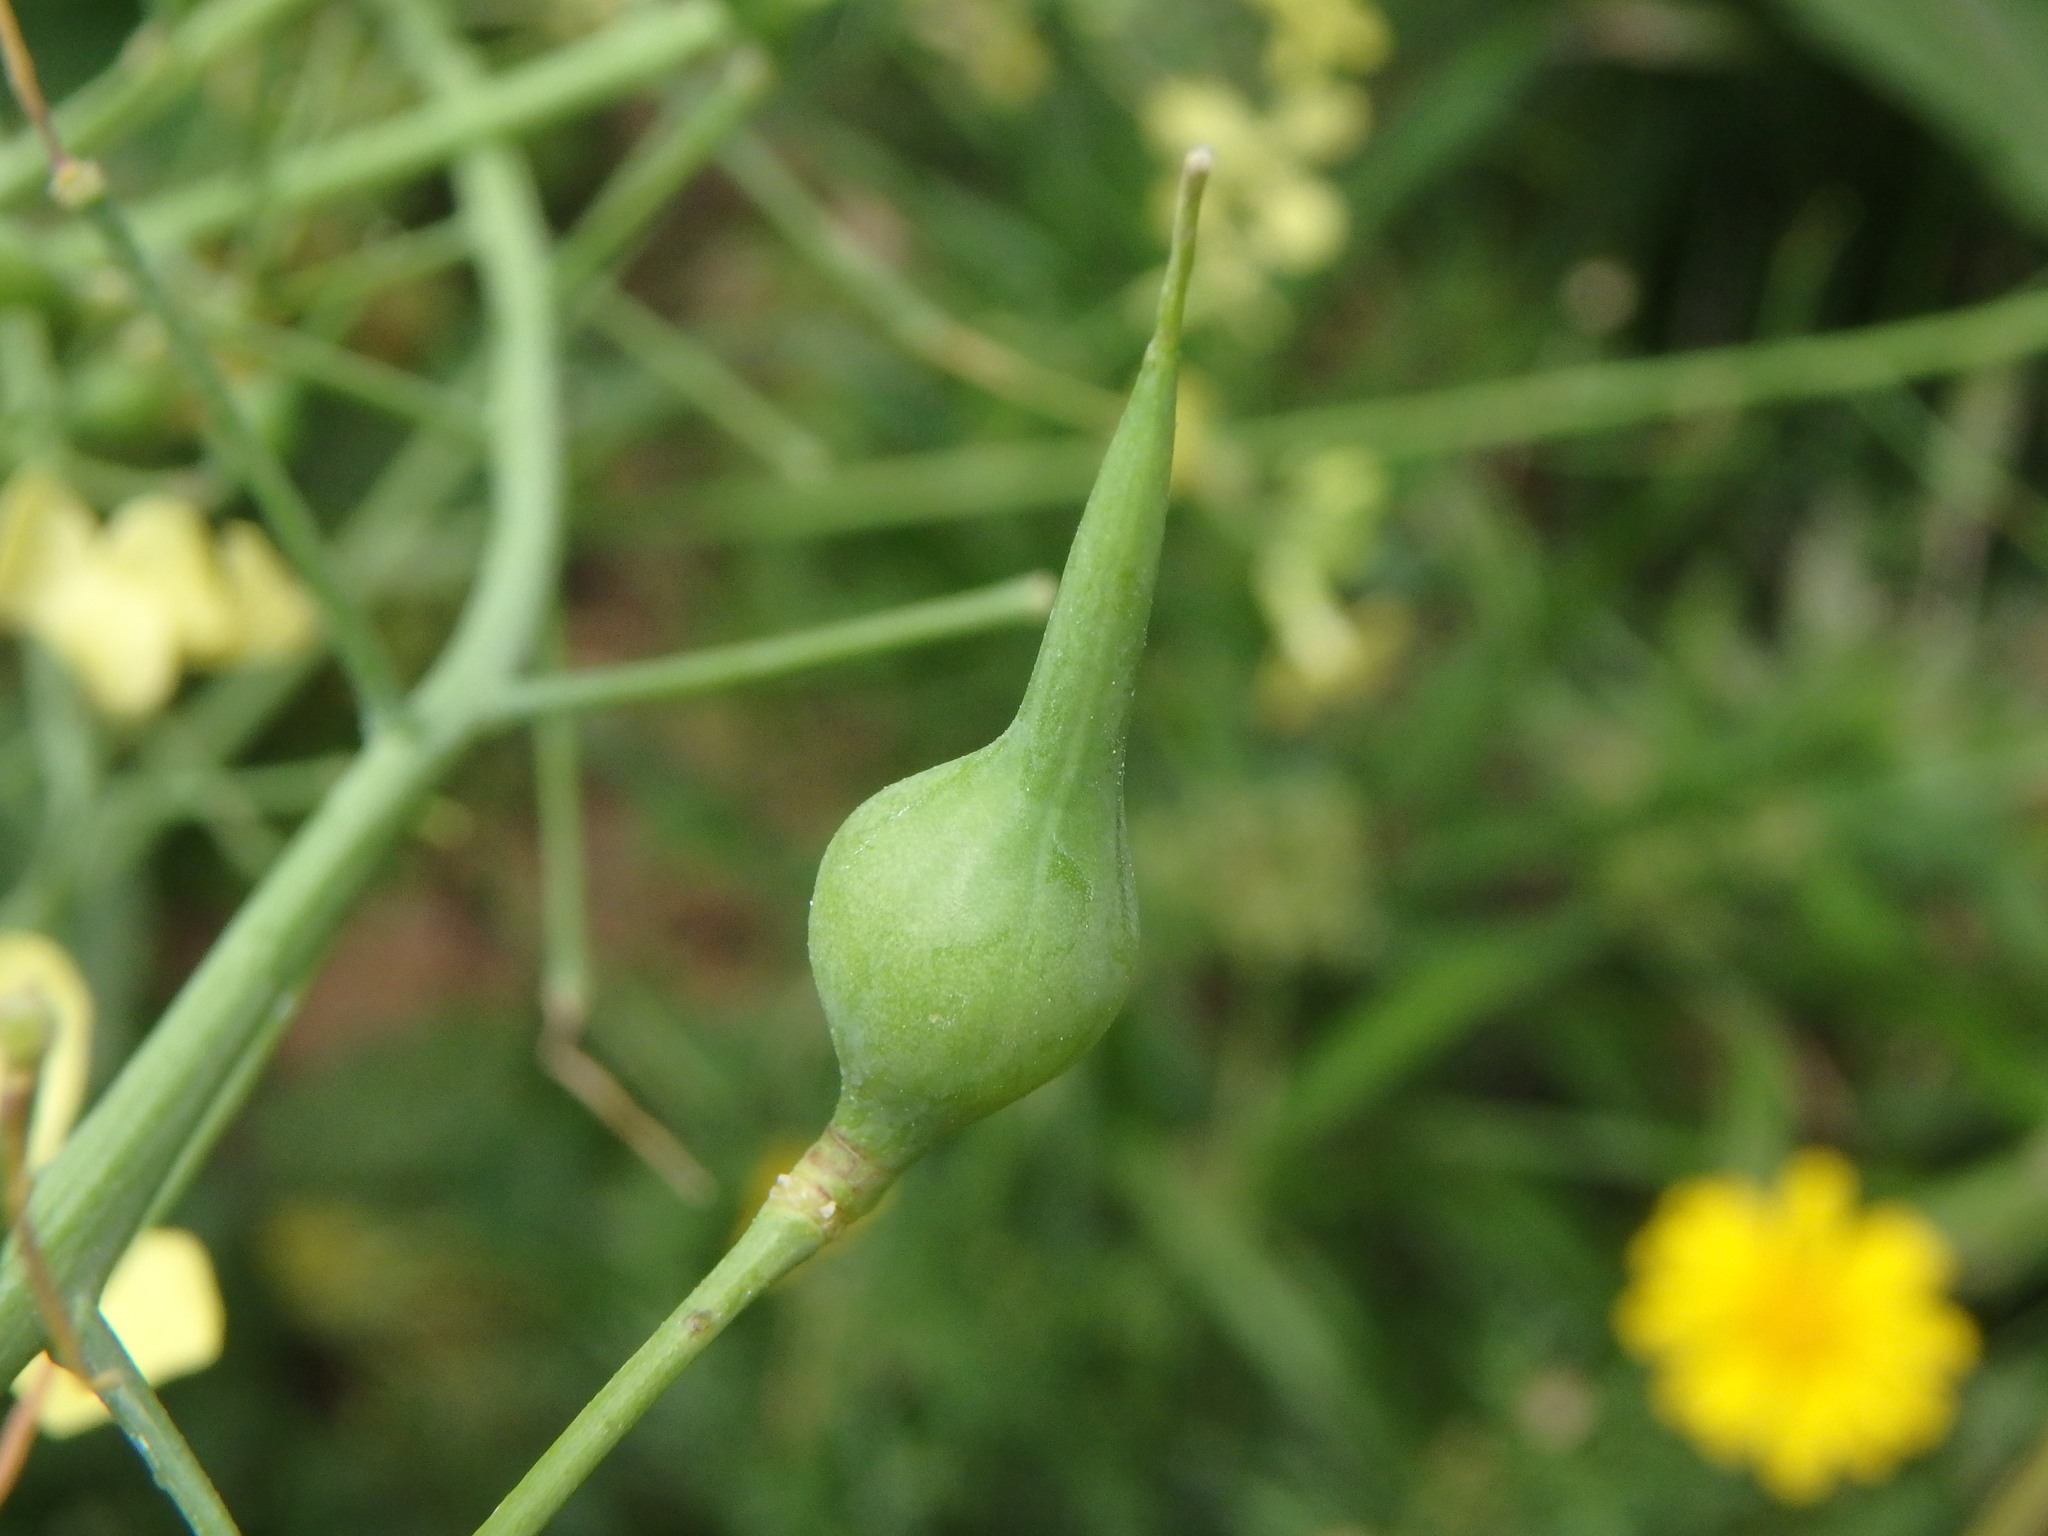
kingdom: Plantae
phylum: Tracheophyta
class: Magnoliopsida
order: Brassicales
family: Brassicaceae
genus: Raphanus
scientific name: Raphanus raphanistrum
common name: Wild radish
